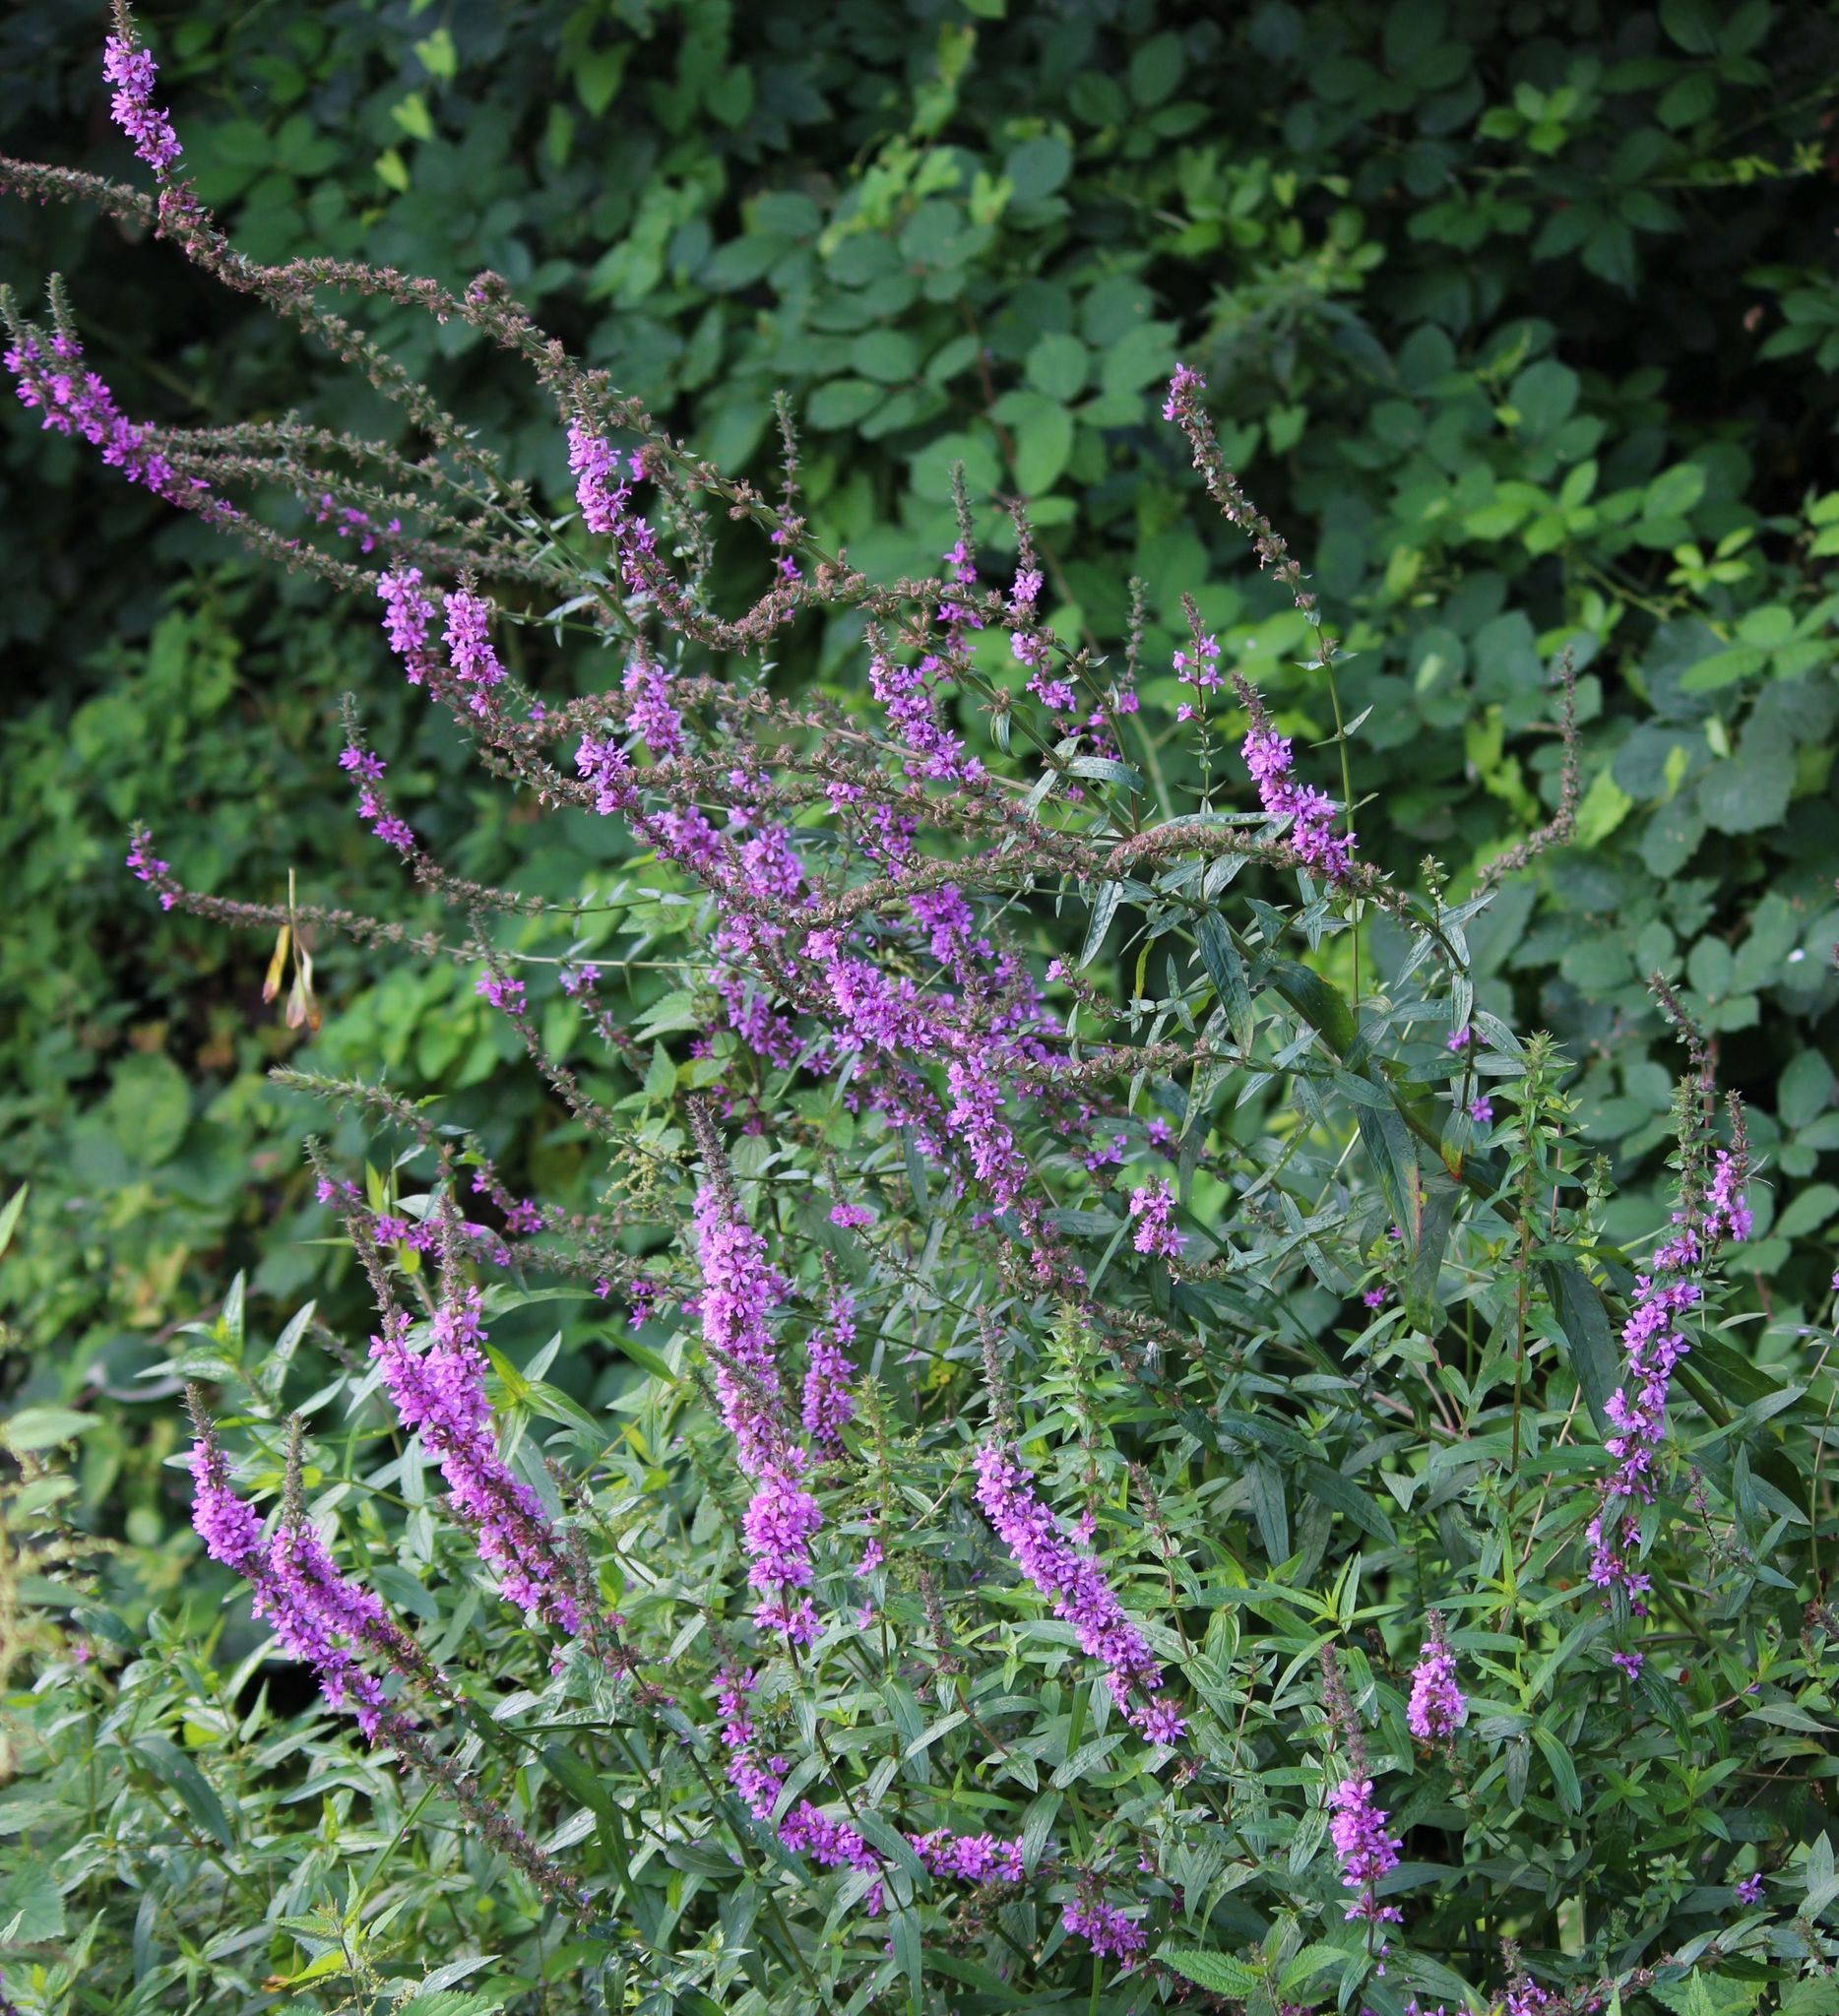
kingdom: Plantae
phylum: Tracheophyta
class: Magnoliopsida
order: Myrtales
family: Lythraceae
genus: Lythrum
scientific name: Lythrum salicaria
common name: Purple loosestrife
